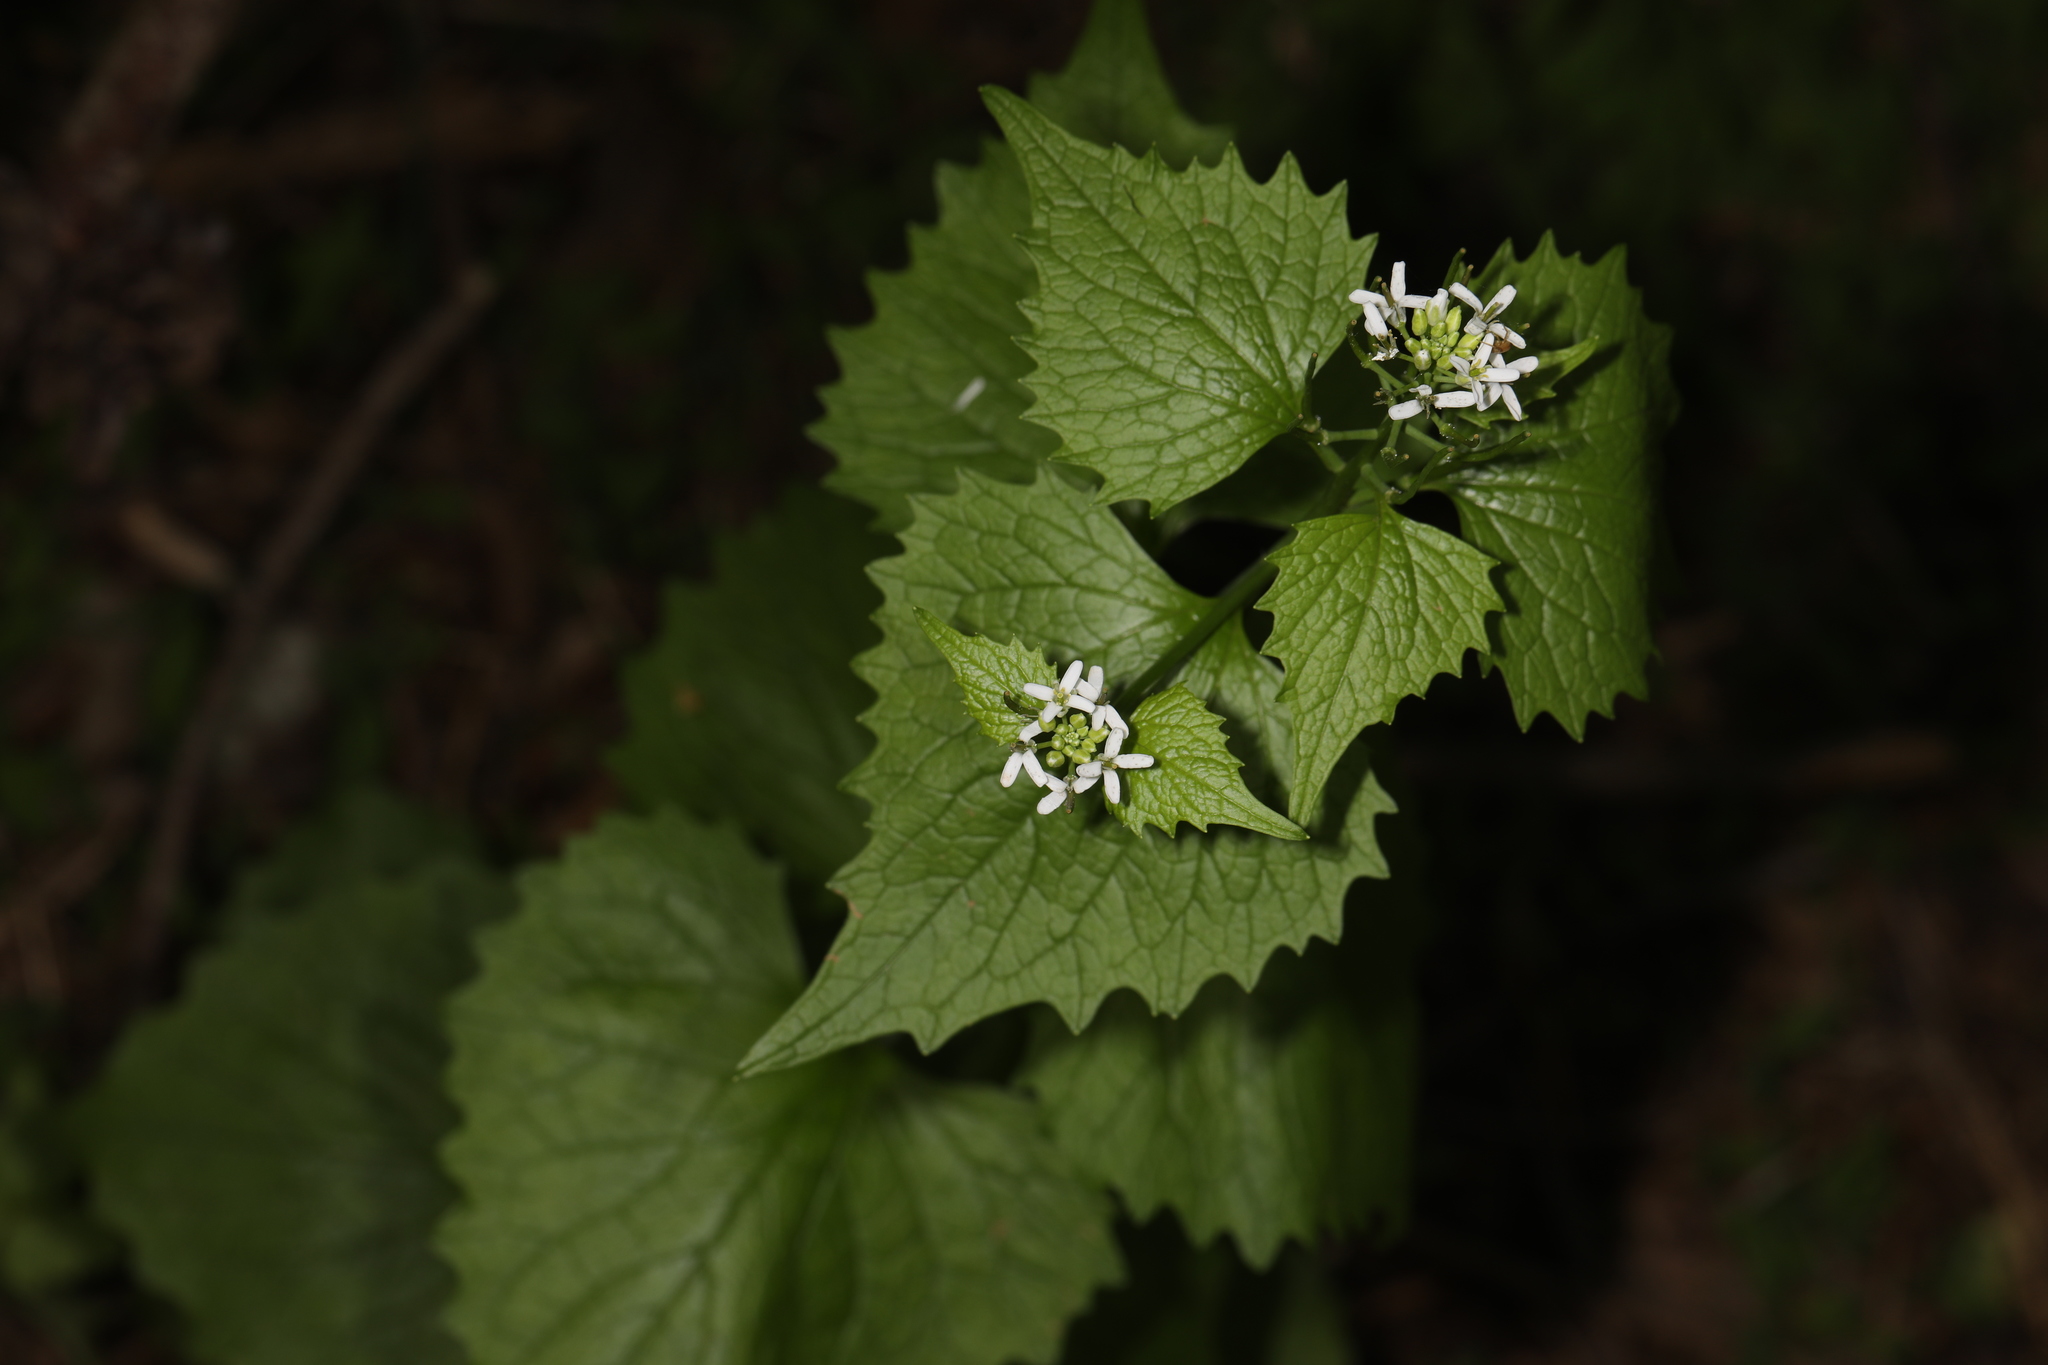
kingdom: Plantae
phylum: Tracheophyta
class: Magnoliopsida
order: Brassicales
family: Brassicaceae
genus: Alliaria
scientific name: Alliaria petiolata
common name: Garlic mustard
